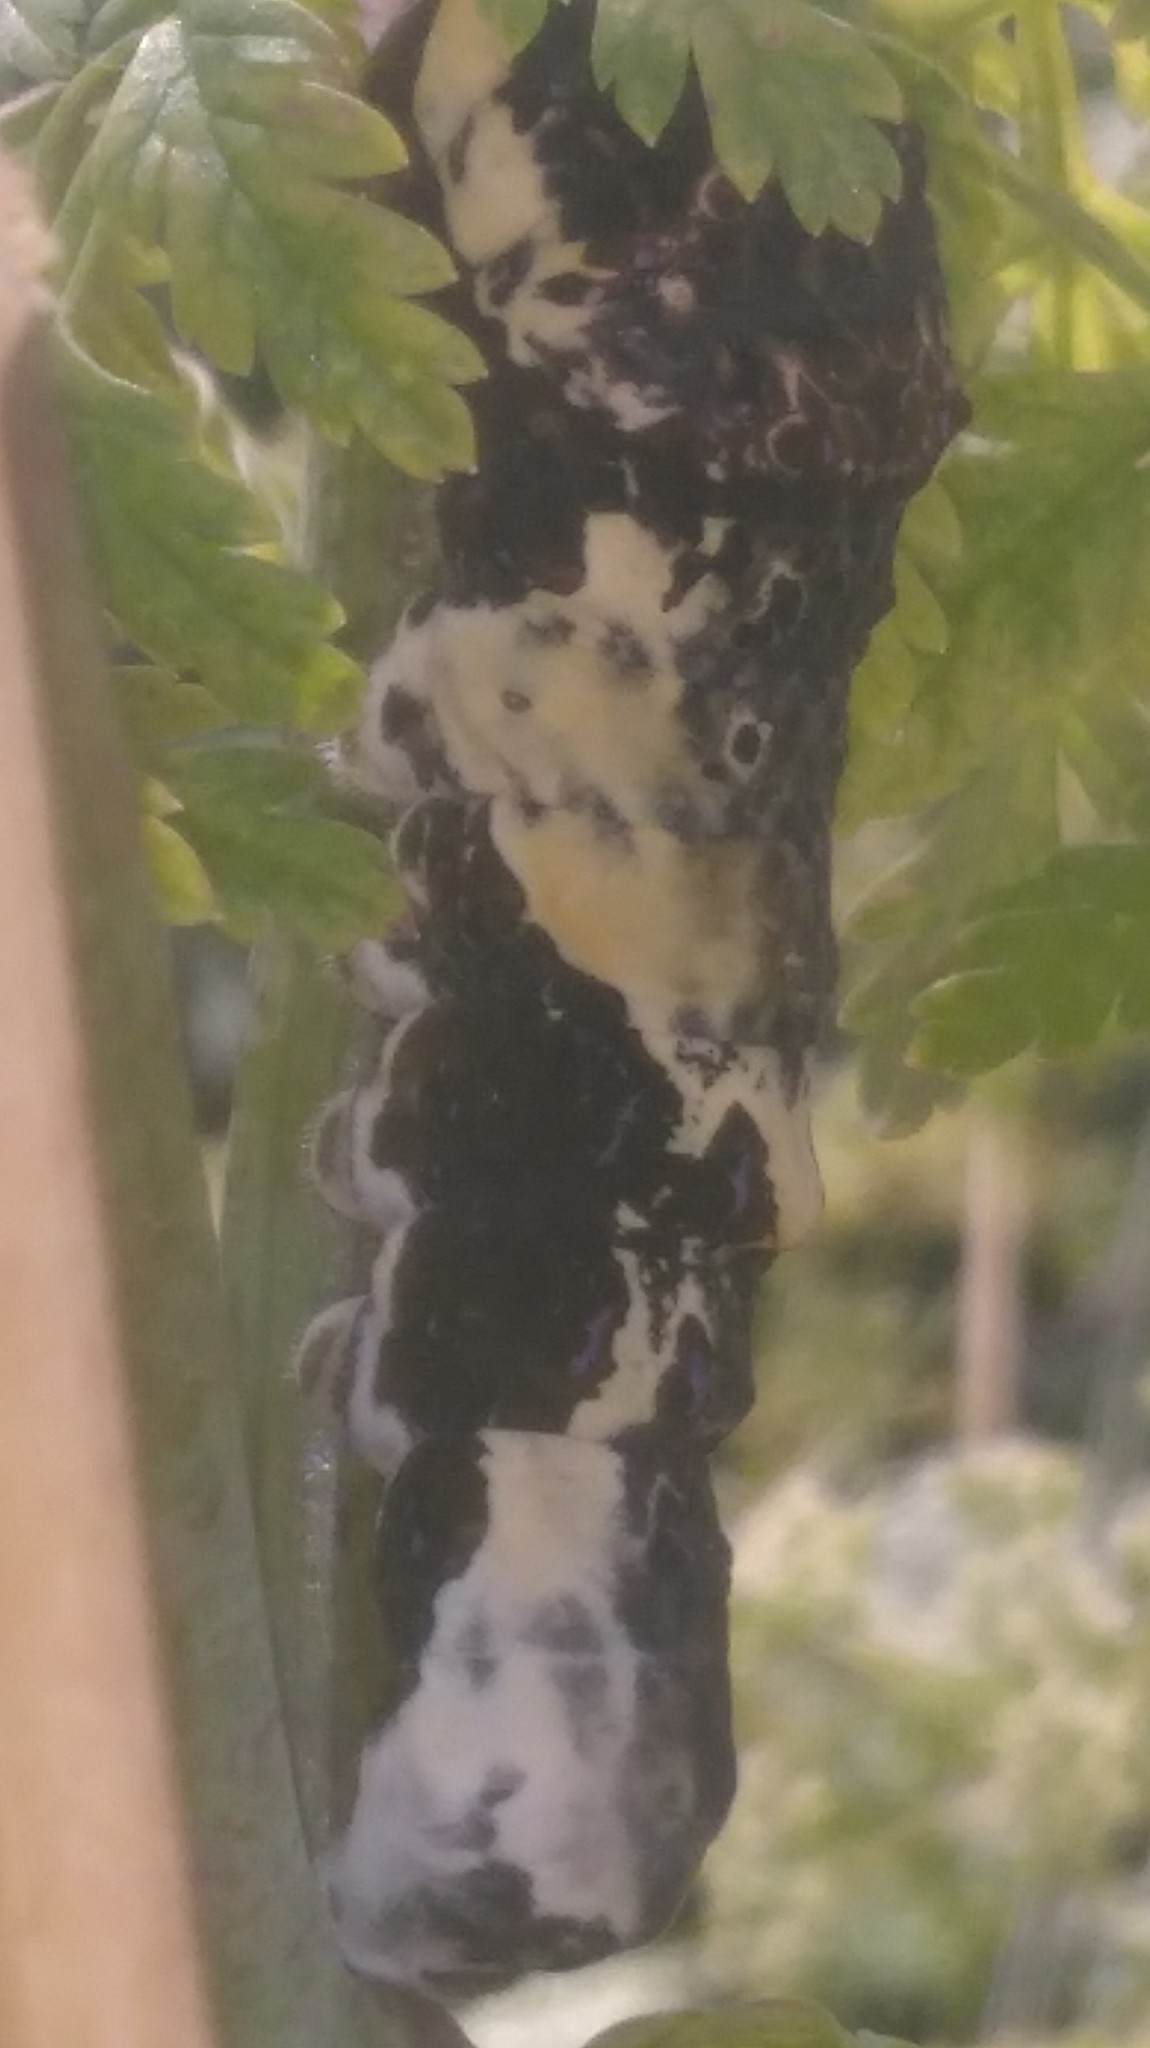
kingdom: Animalia
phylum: Arthropoda
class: Insecta
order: Lepidoptera
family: Papilionidae
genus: Papilio
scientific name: Papilio thoas
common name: King swallowtail
